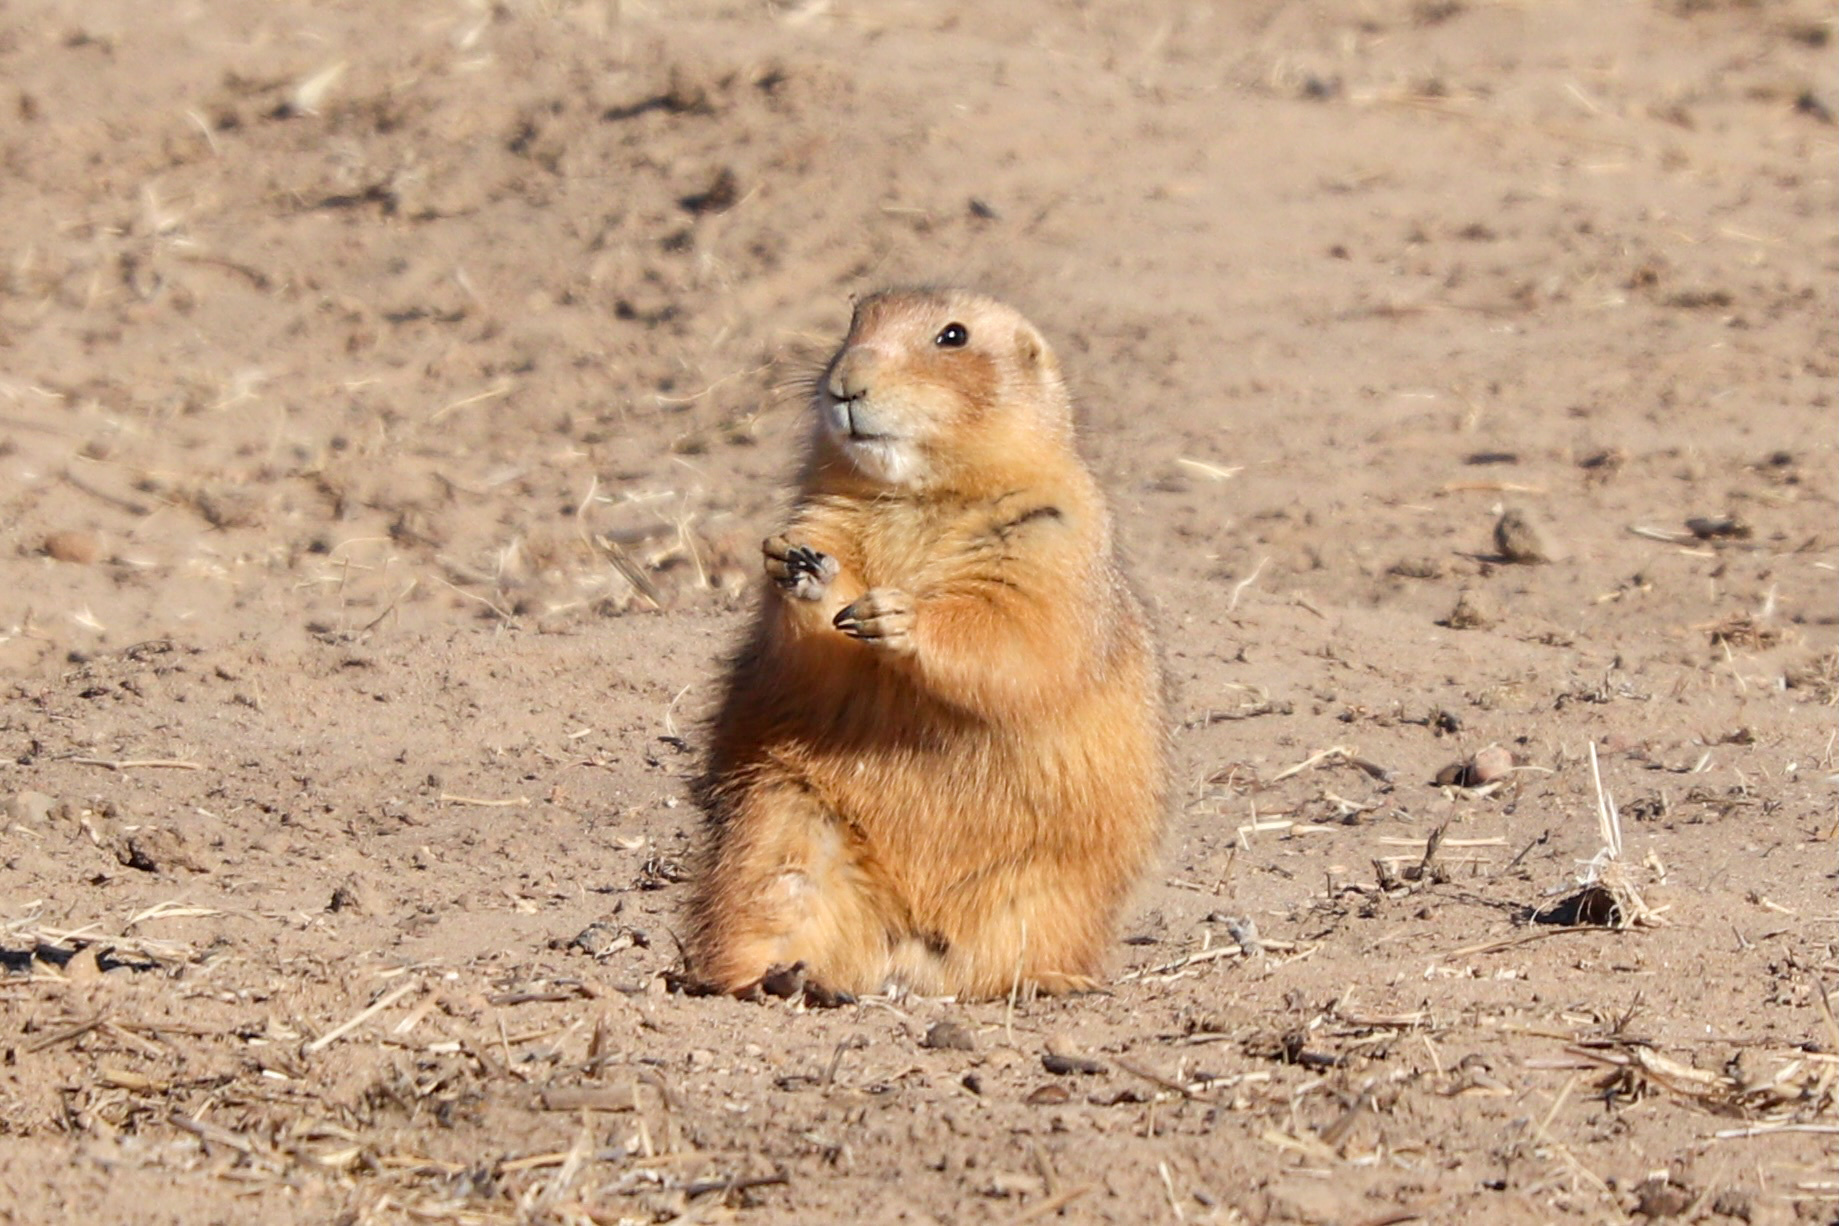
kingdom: Animalia
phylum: Chordata
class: Mammalia
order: Rodentia
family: Sciuridae
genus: Cynomys
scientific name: Cynomys ludovicianus
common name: Black-tailed prairie dog
